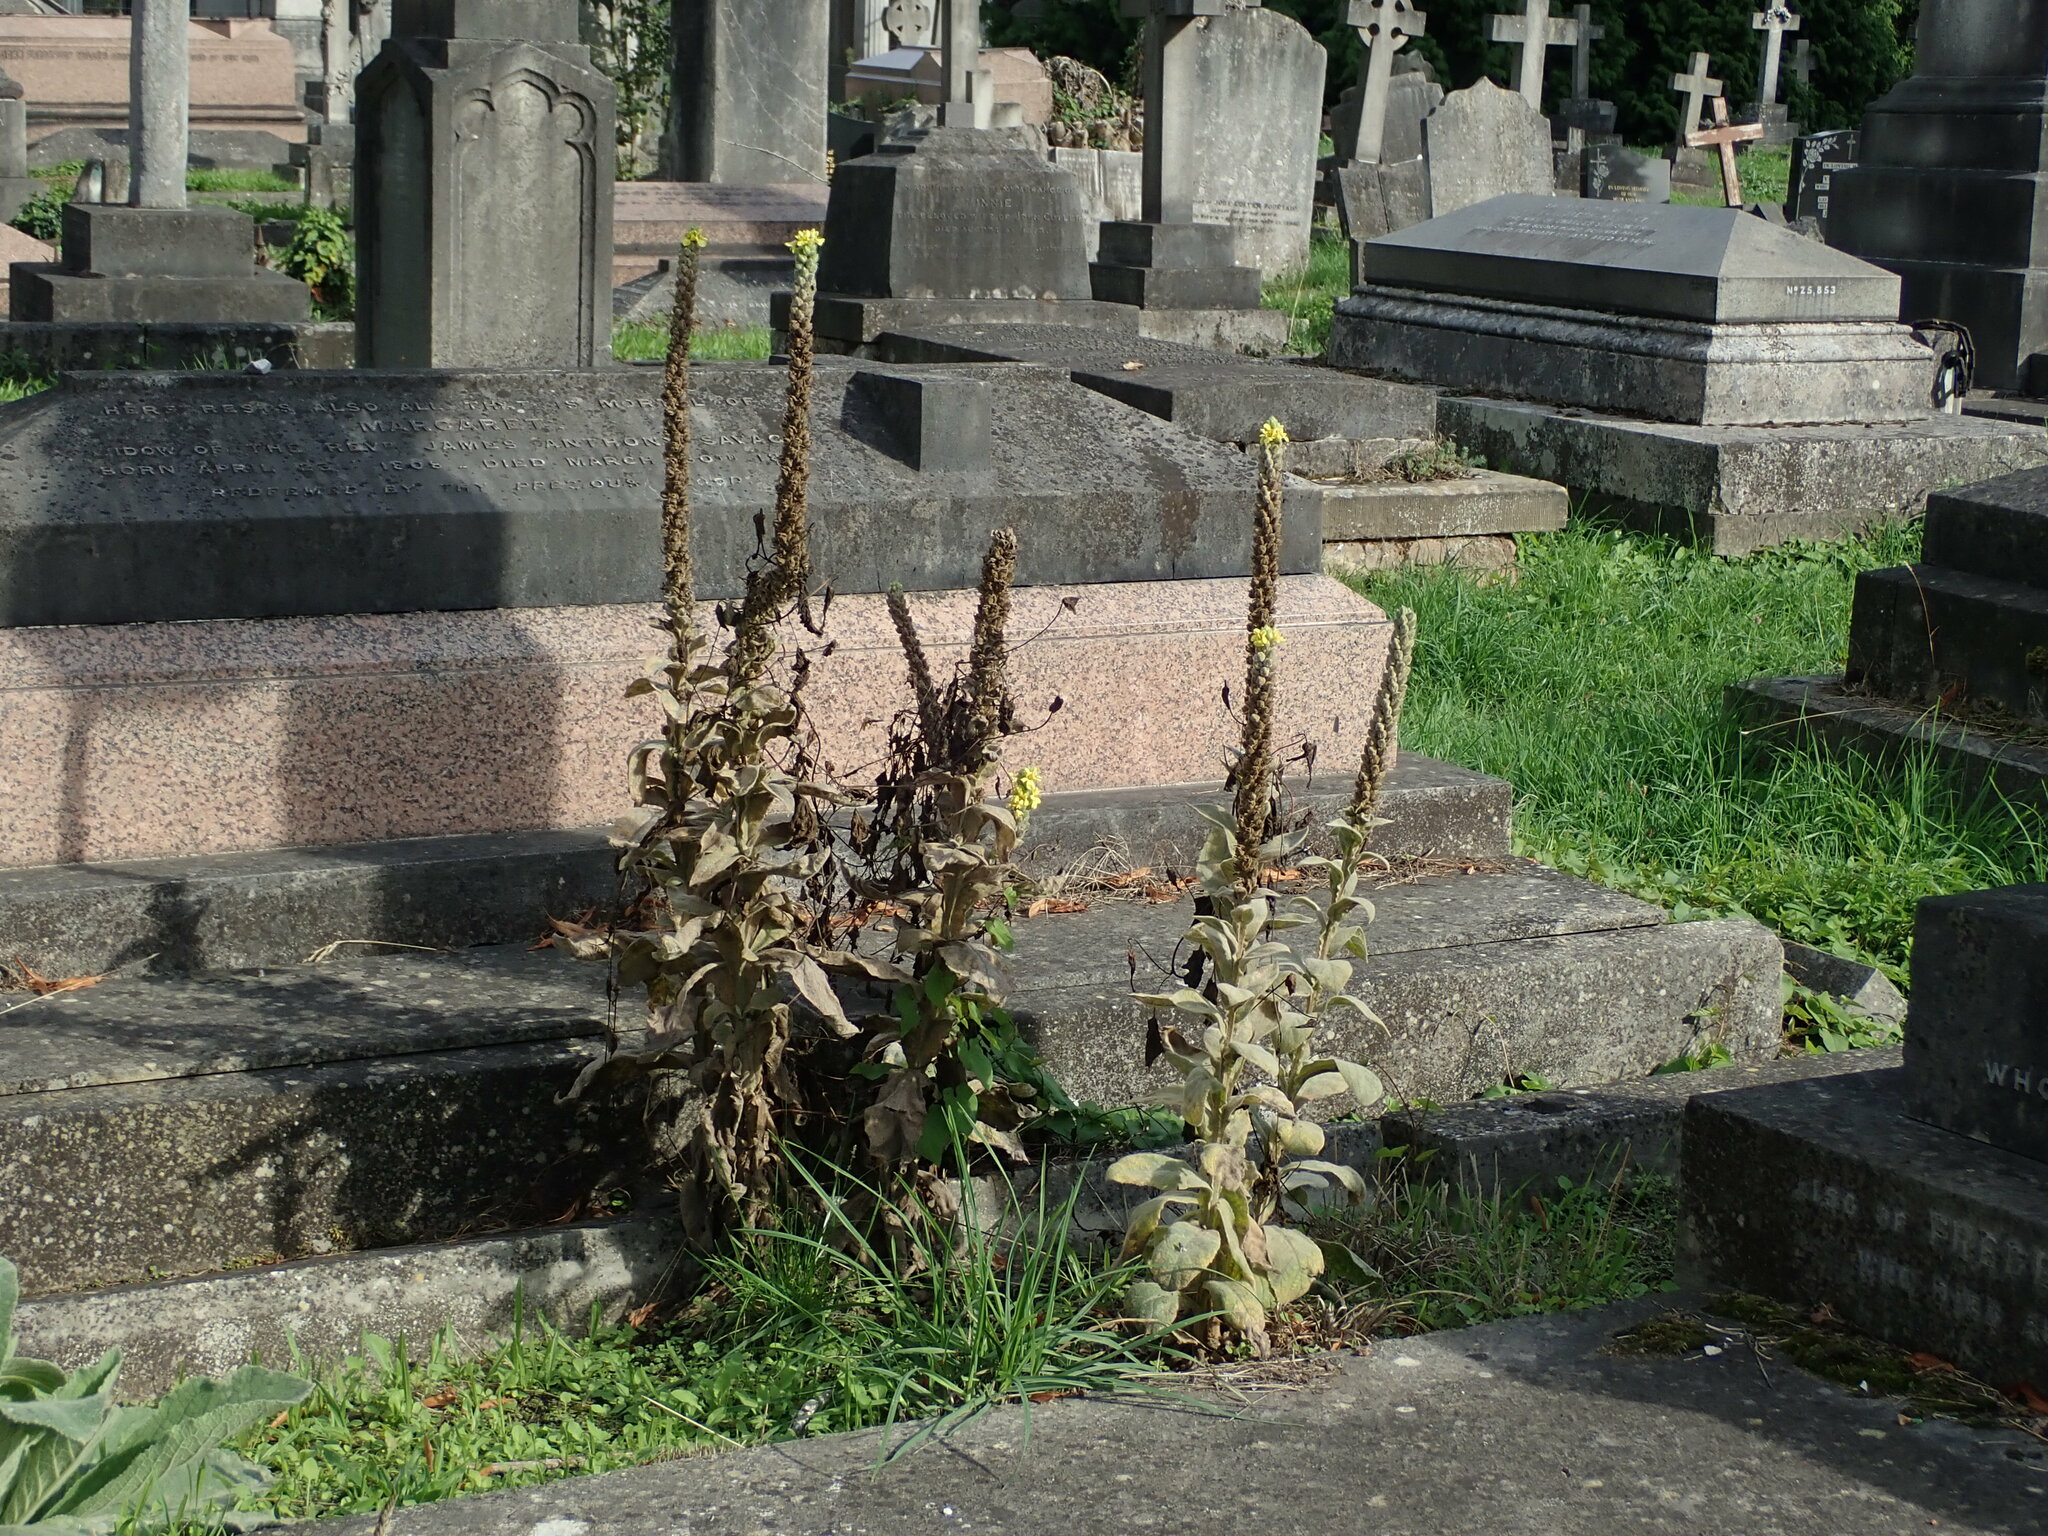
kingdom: Plantae
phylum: Tracheophyta
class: Magnoliopsida
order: Lamiales
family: Scrophulariaceae
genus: Verbascum
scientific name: Verbascum thapsus
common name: Common mullein
